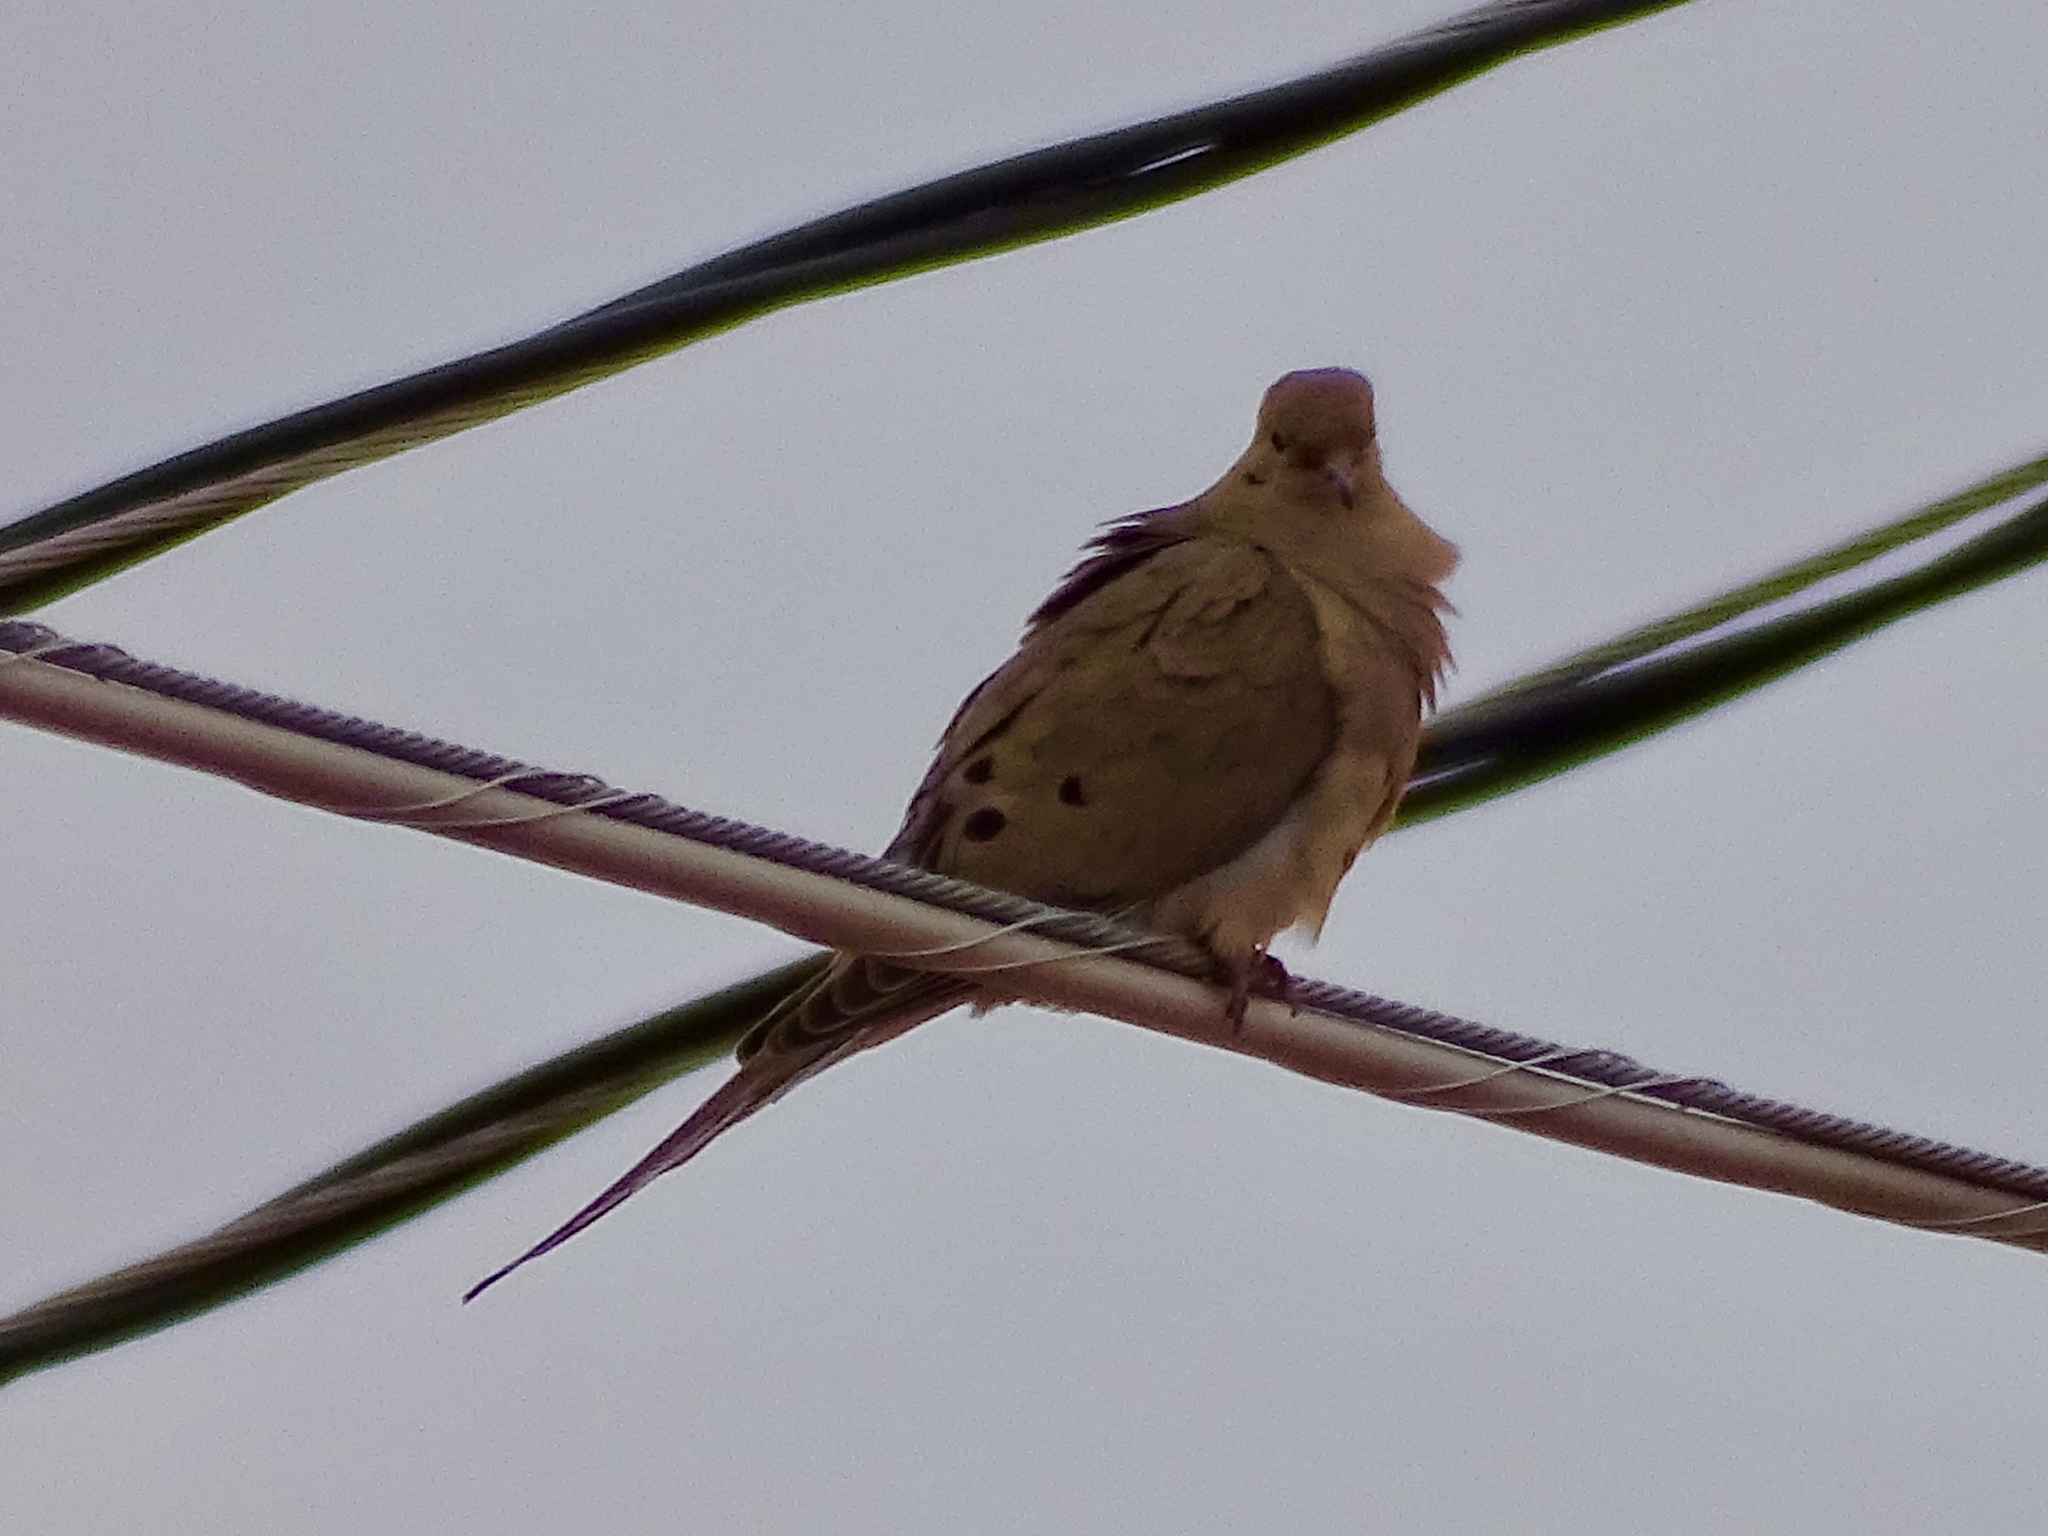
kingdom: Animalia
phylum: Chordata
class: Aves
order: Columbiformes
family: Columbidae
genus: Zenaida
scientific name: Zenaida macroura
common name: Mourning dove
